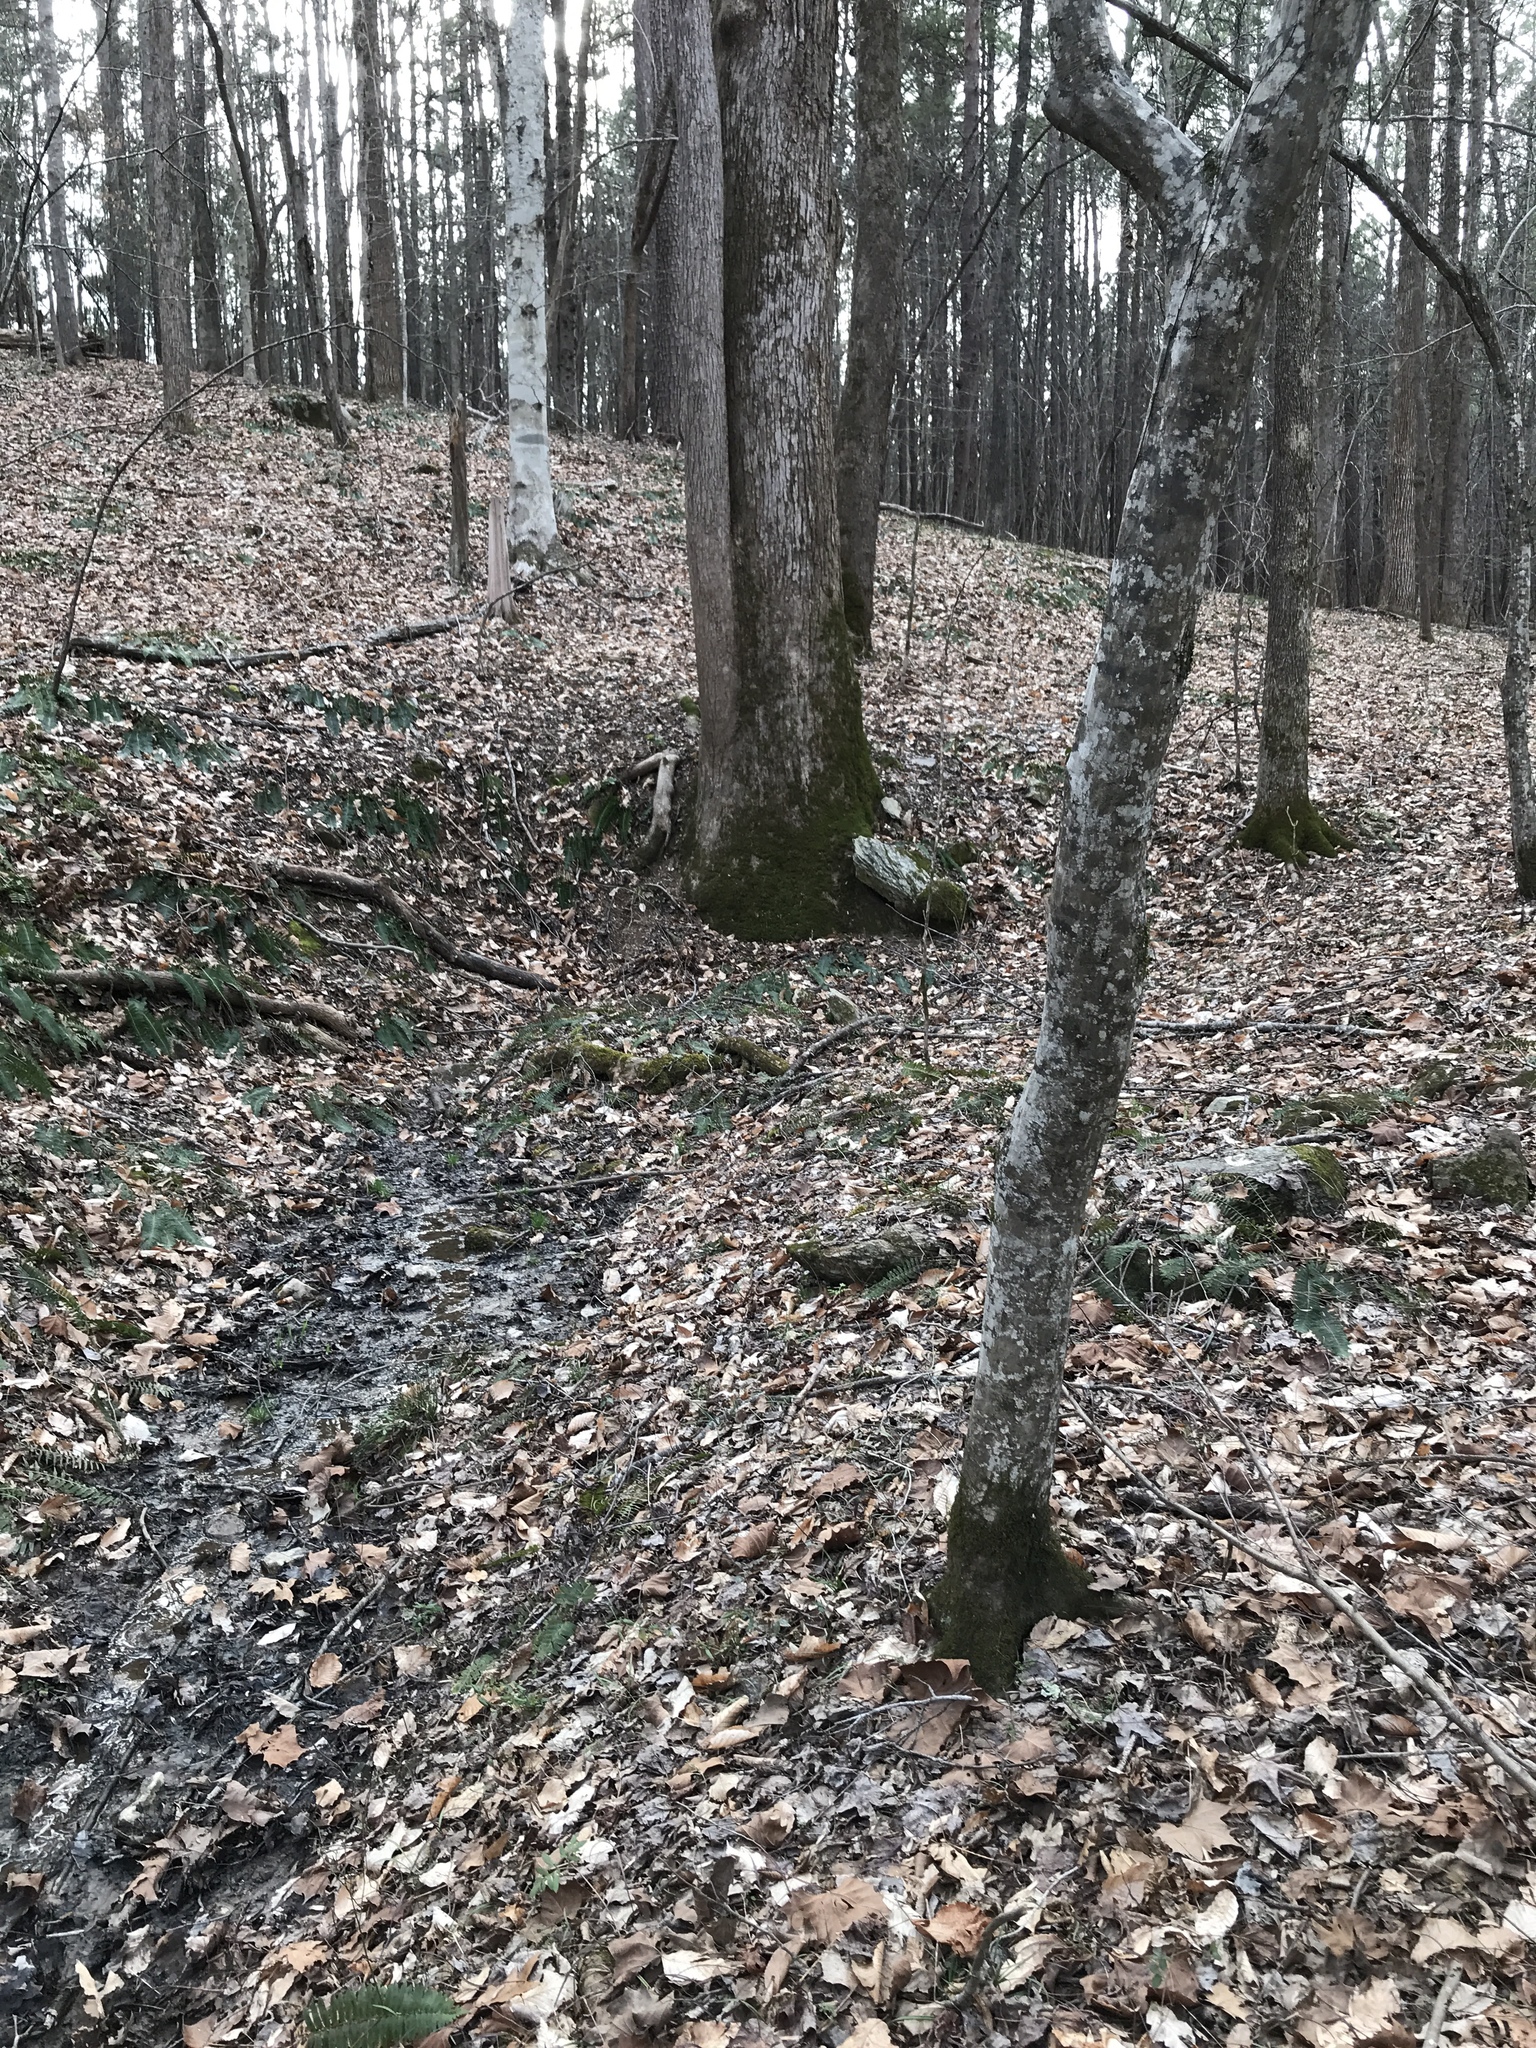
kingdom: Plantae
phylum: Tracheophyta
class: Magnoliopsida
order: Magnoliales
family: Magnoliaceae
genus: Liriodendron
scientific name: Liriodendron tulipifera
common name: Tulip tree
